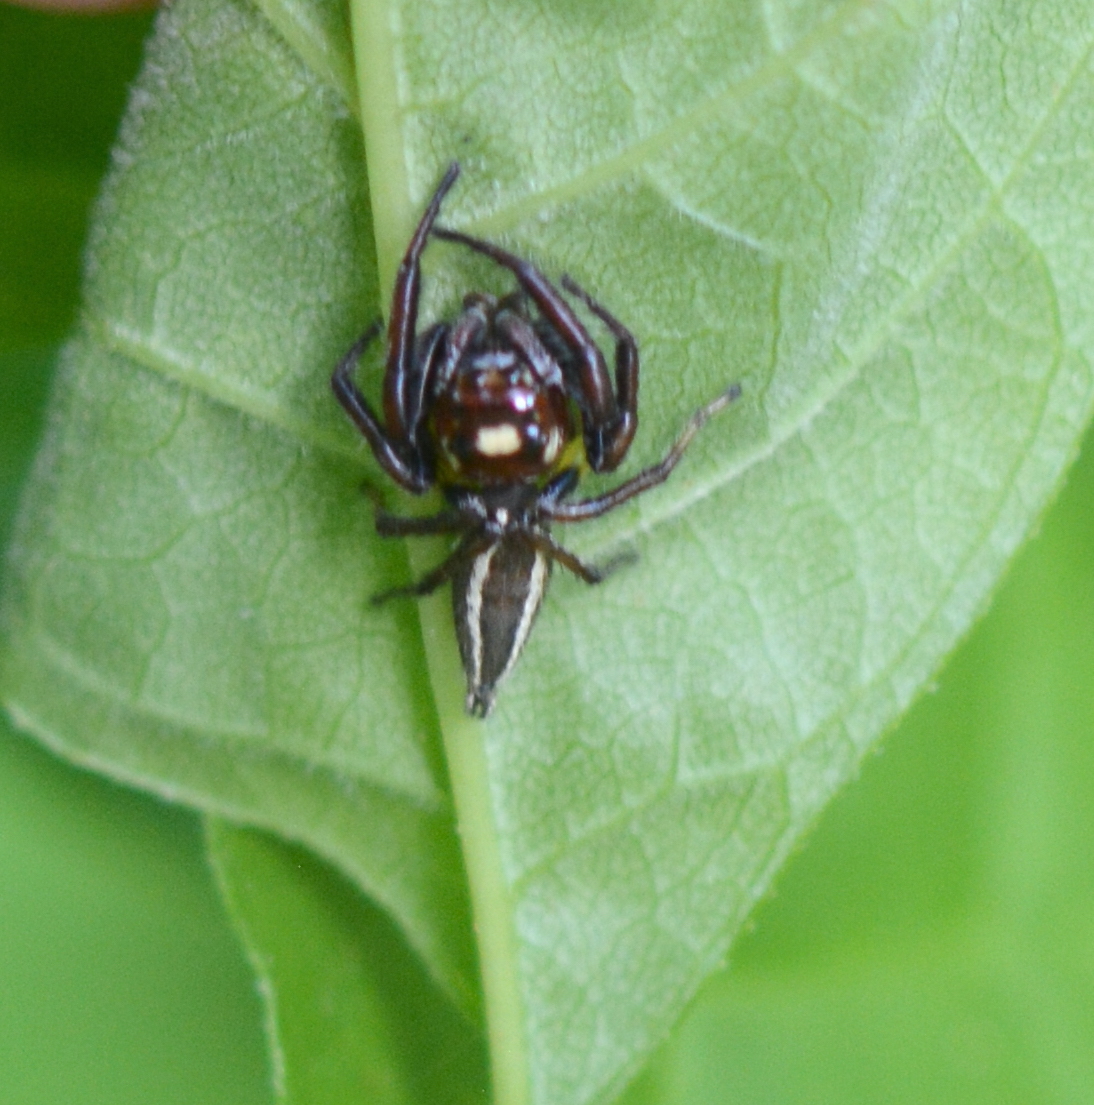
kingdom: Animalia
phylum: Arthropoda
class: Arachnida
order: Araneae
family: Salticidae
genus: Colonus
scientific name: Colonus sylvanus
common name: Jumping spiders
